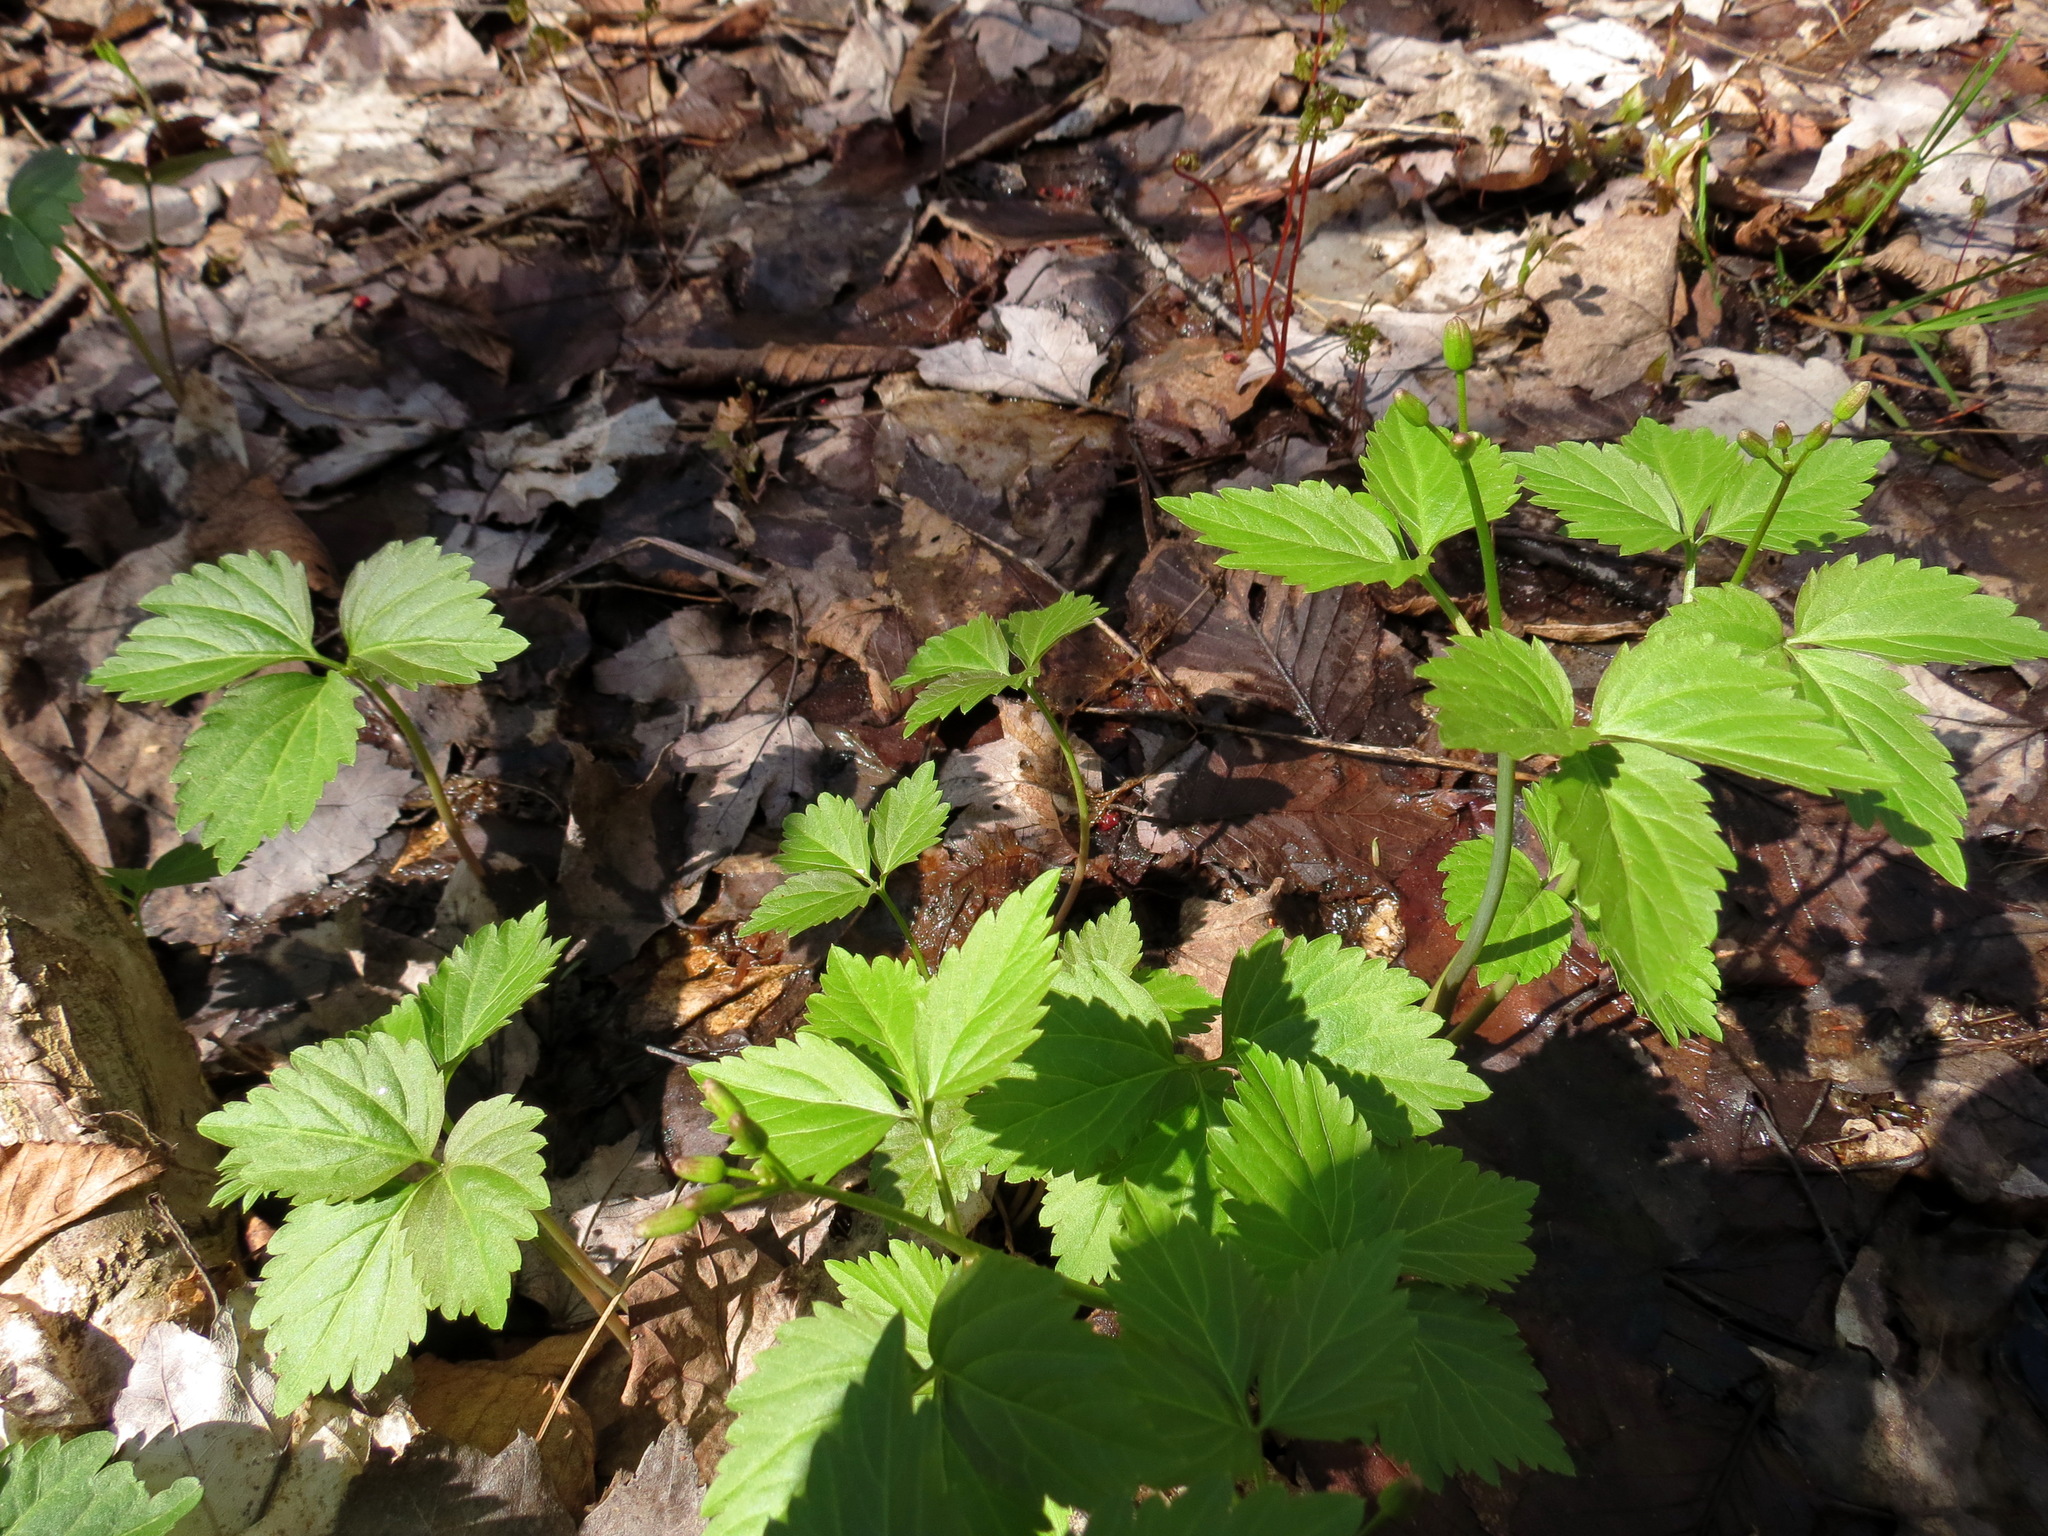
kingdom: Plantae
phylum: Tracheophyta
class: Magnoliopsida
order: Brassicales
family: Brassicaceae
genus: Cardamine
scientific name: Cardamine diphylla
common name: Broad-leaved toothwort
